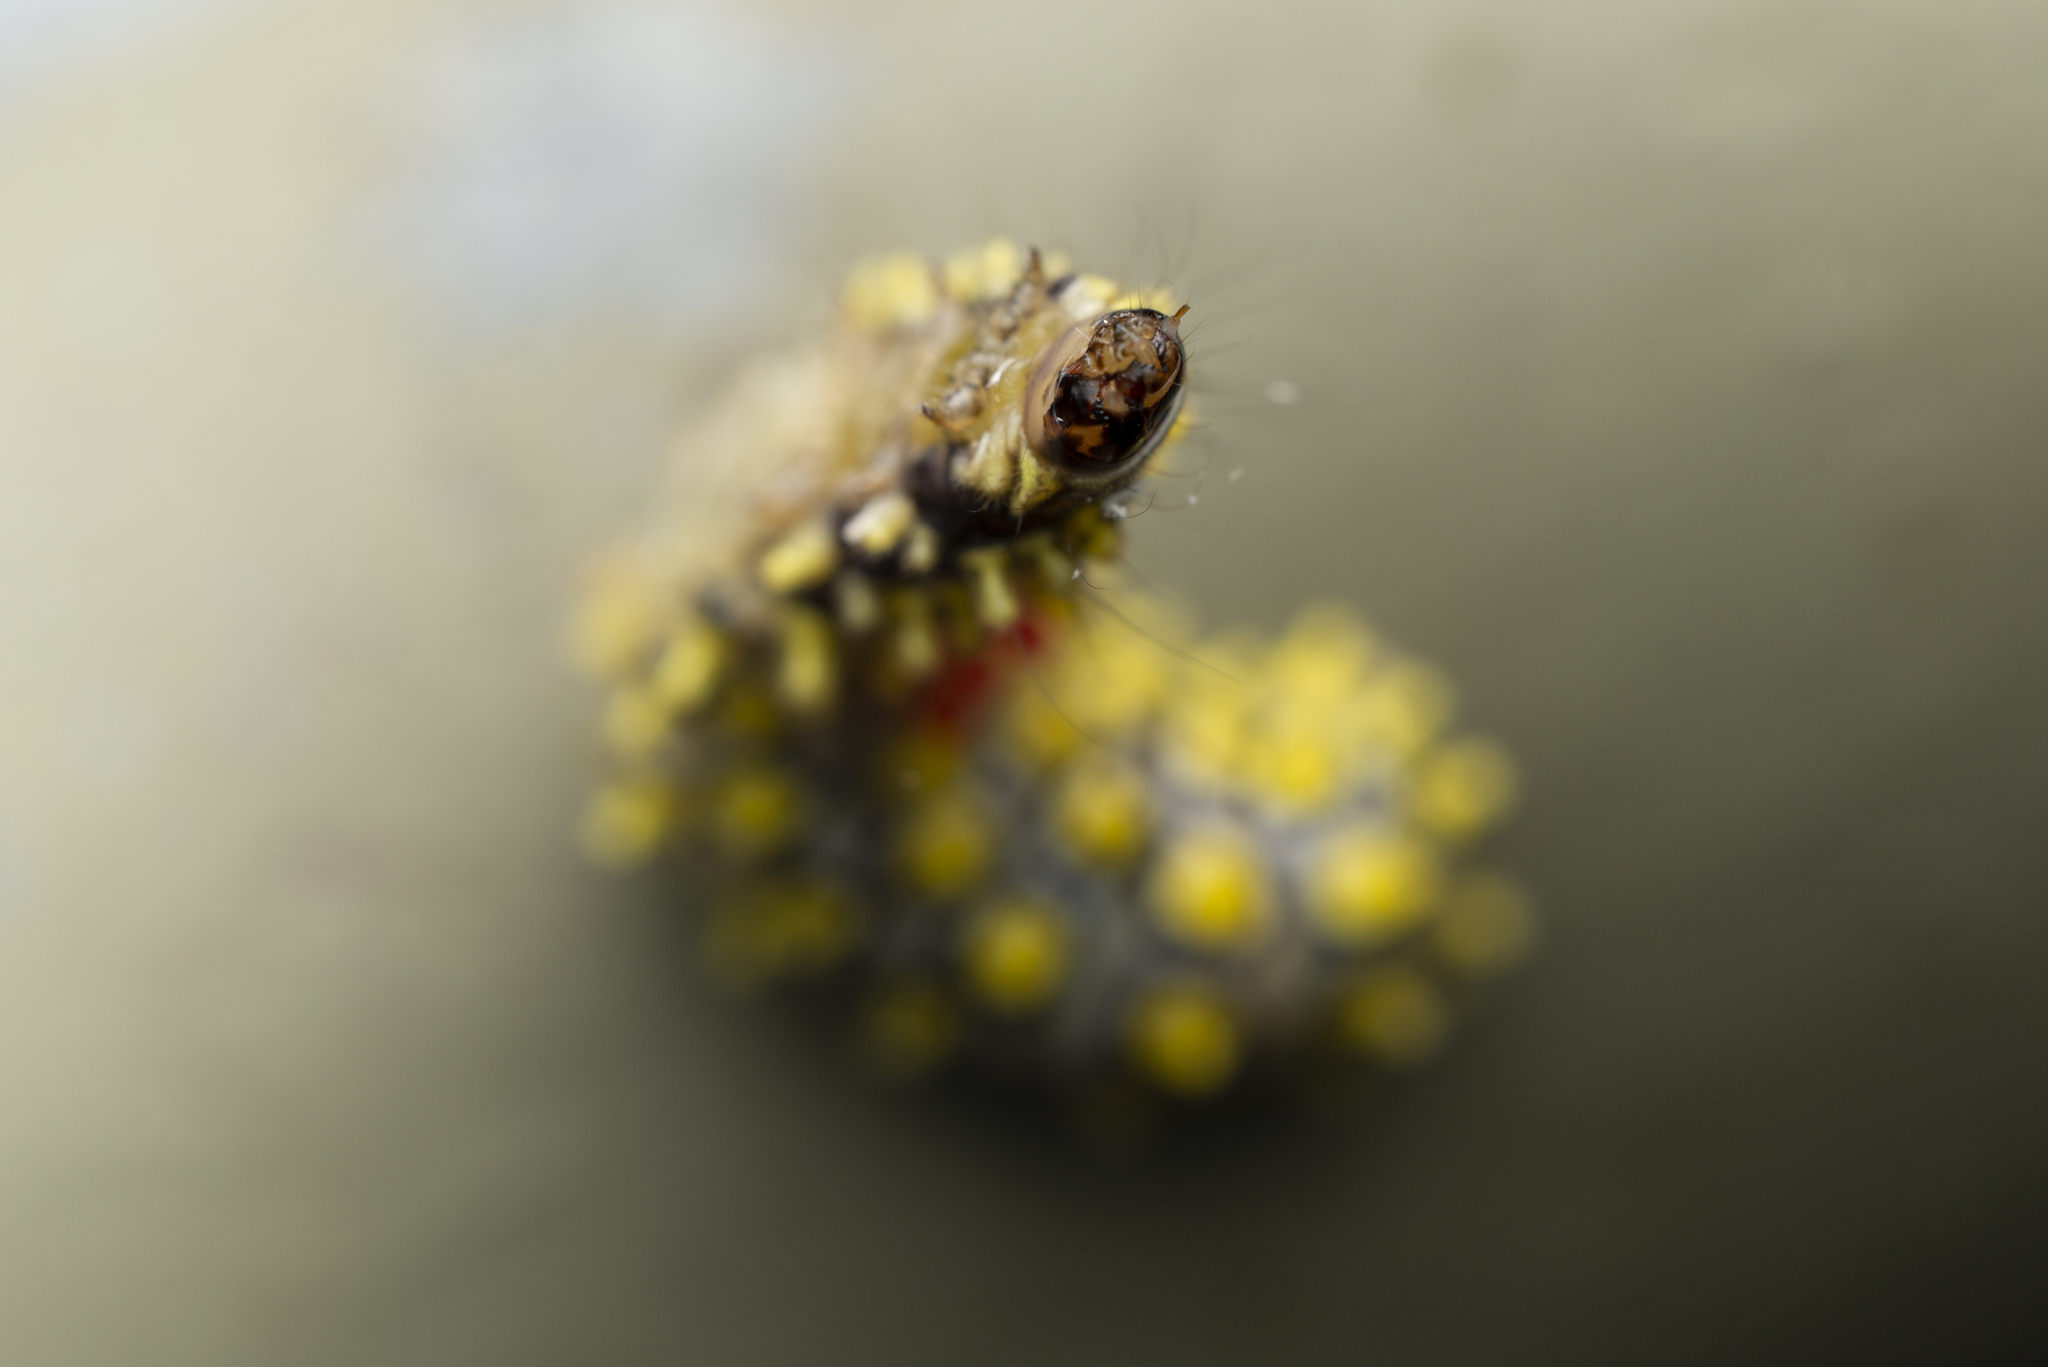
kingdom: Animalia
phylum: Arthropoda
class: Insecta
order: Lepidoptera
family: Zygaenidae
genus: Cyclosia
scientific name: Cyclosia papilionaris
